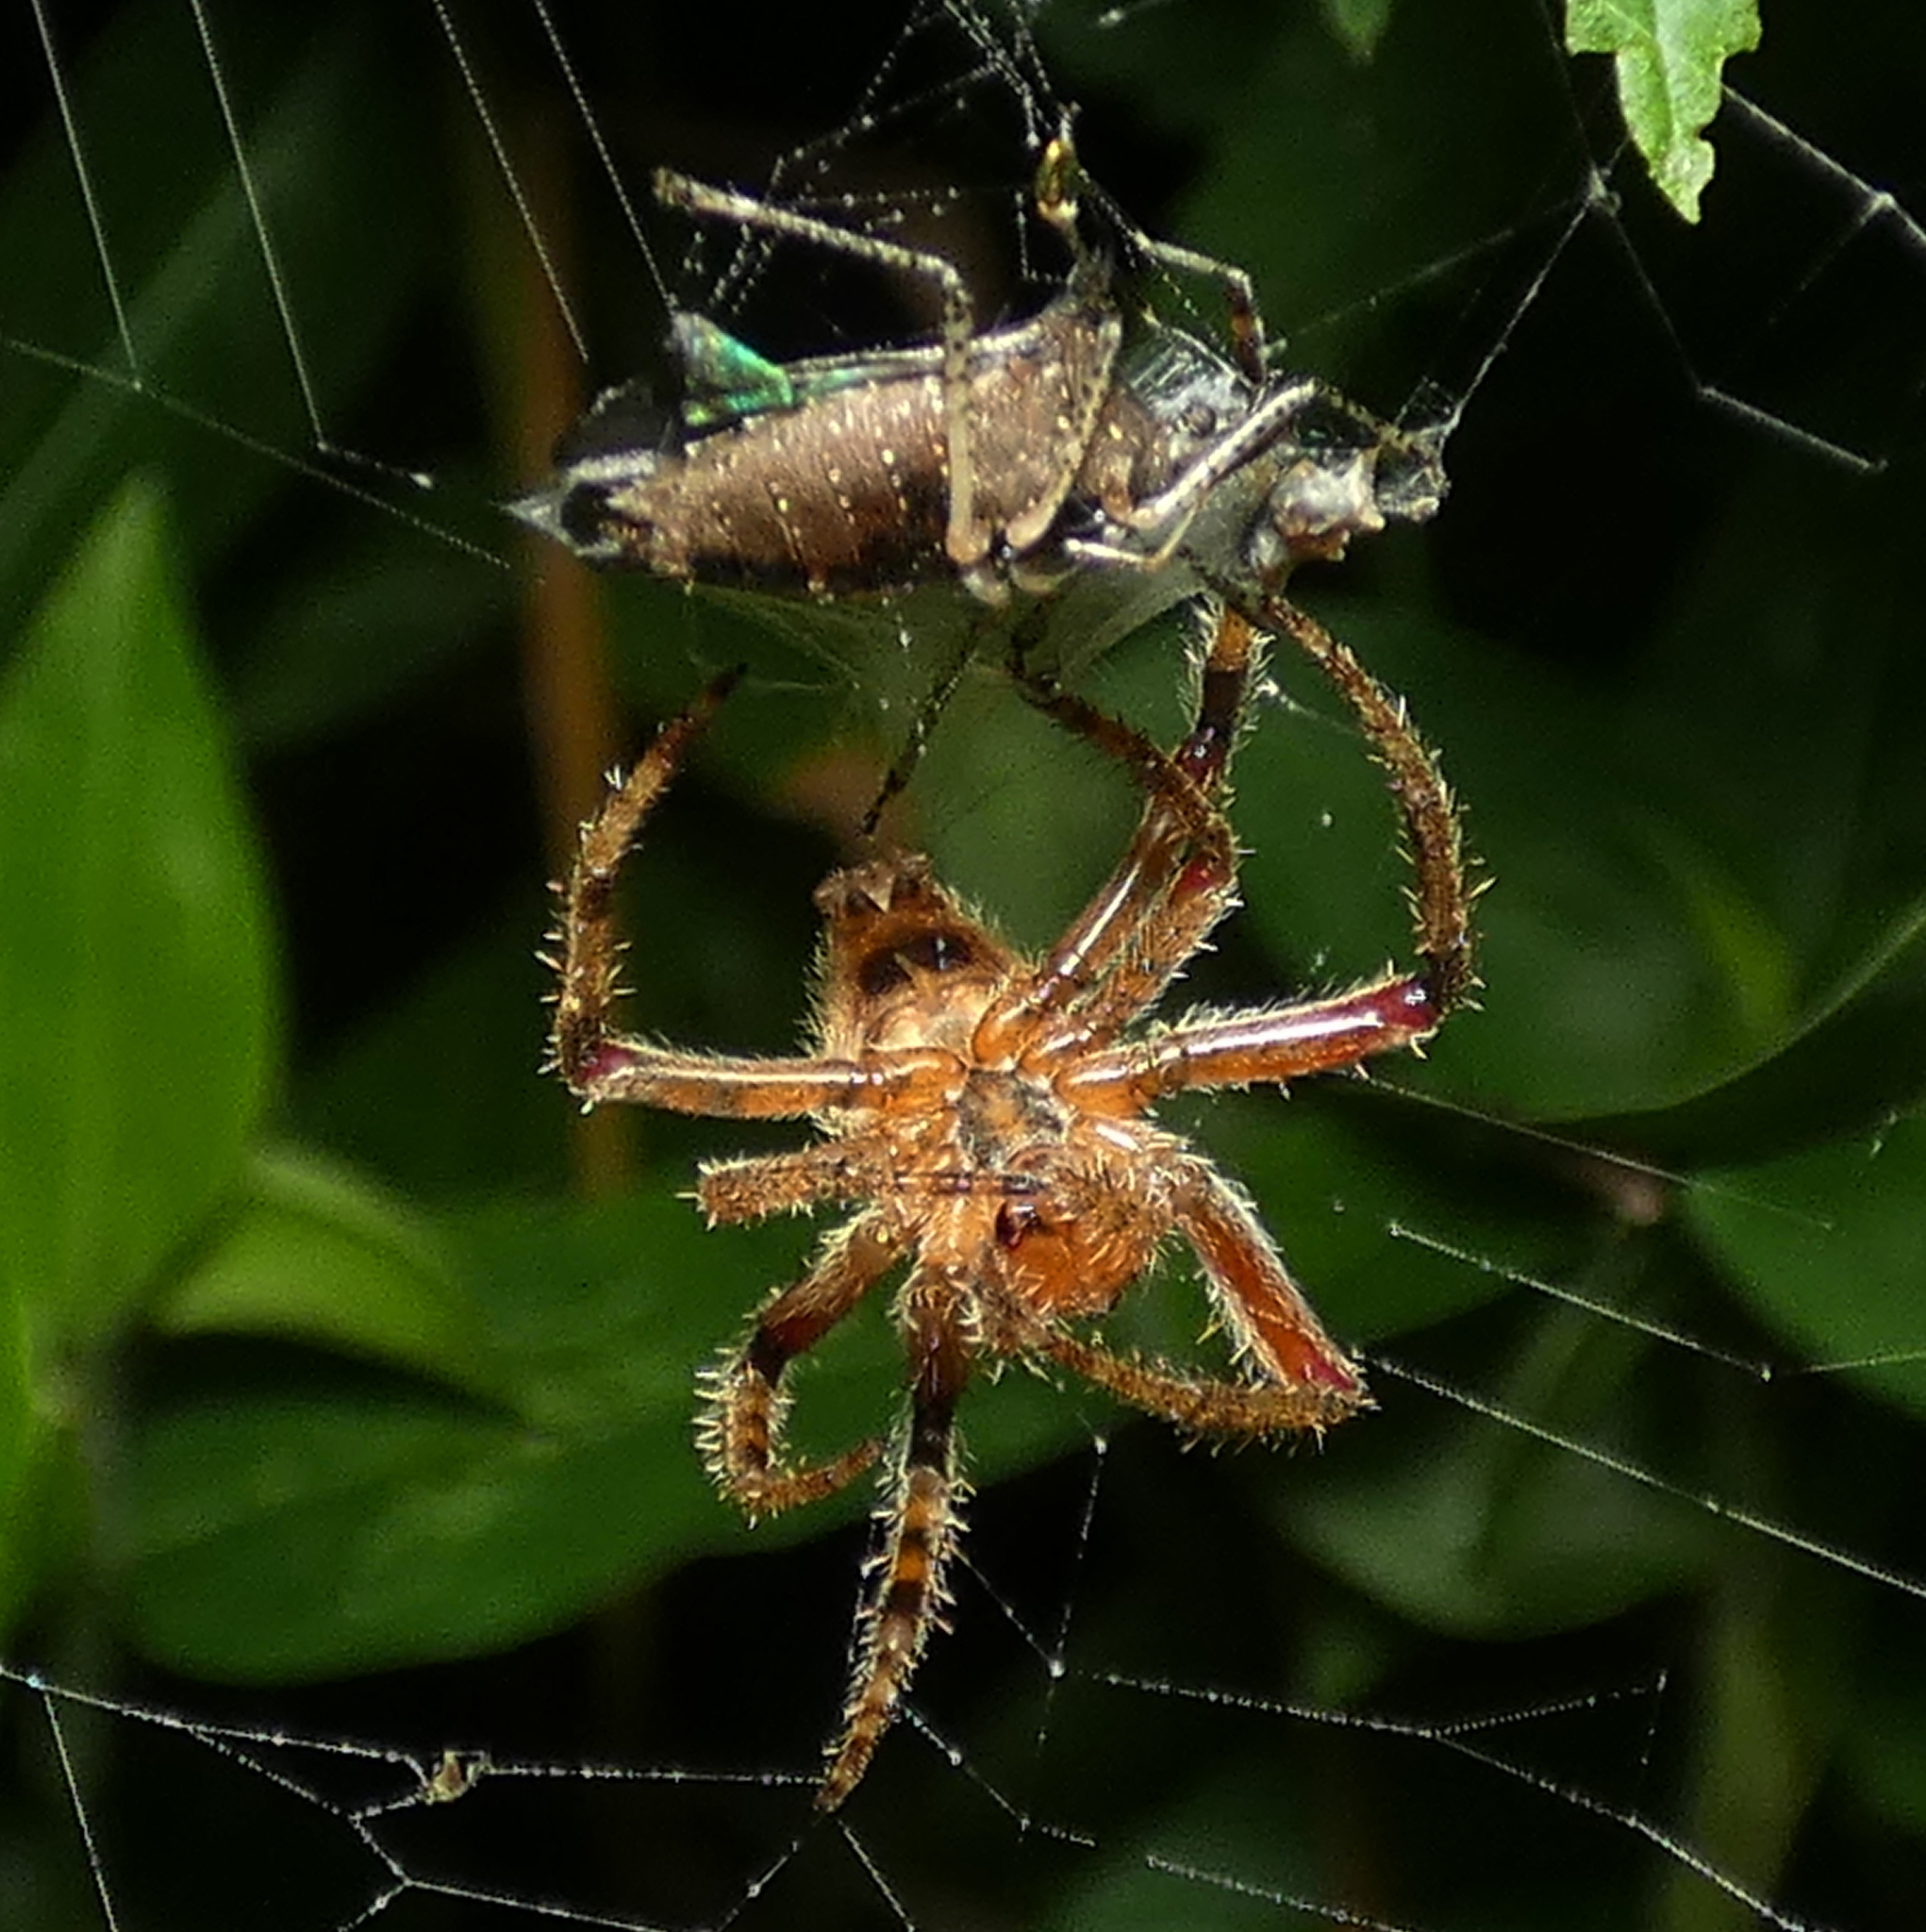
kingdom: Animalia
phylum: Arthropoda
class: Arachnida
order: Araneae
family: Araneidae
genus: Eriophora
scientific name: Eriophora edax
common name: Orb weavers
